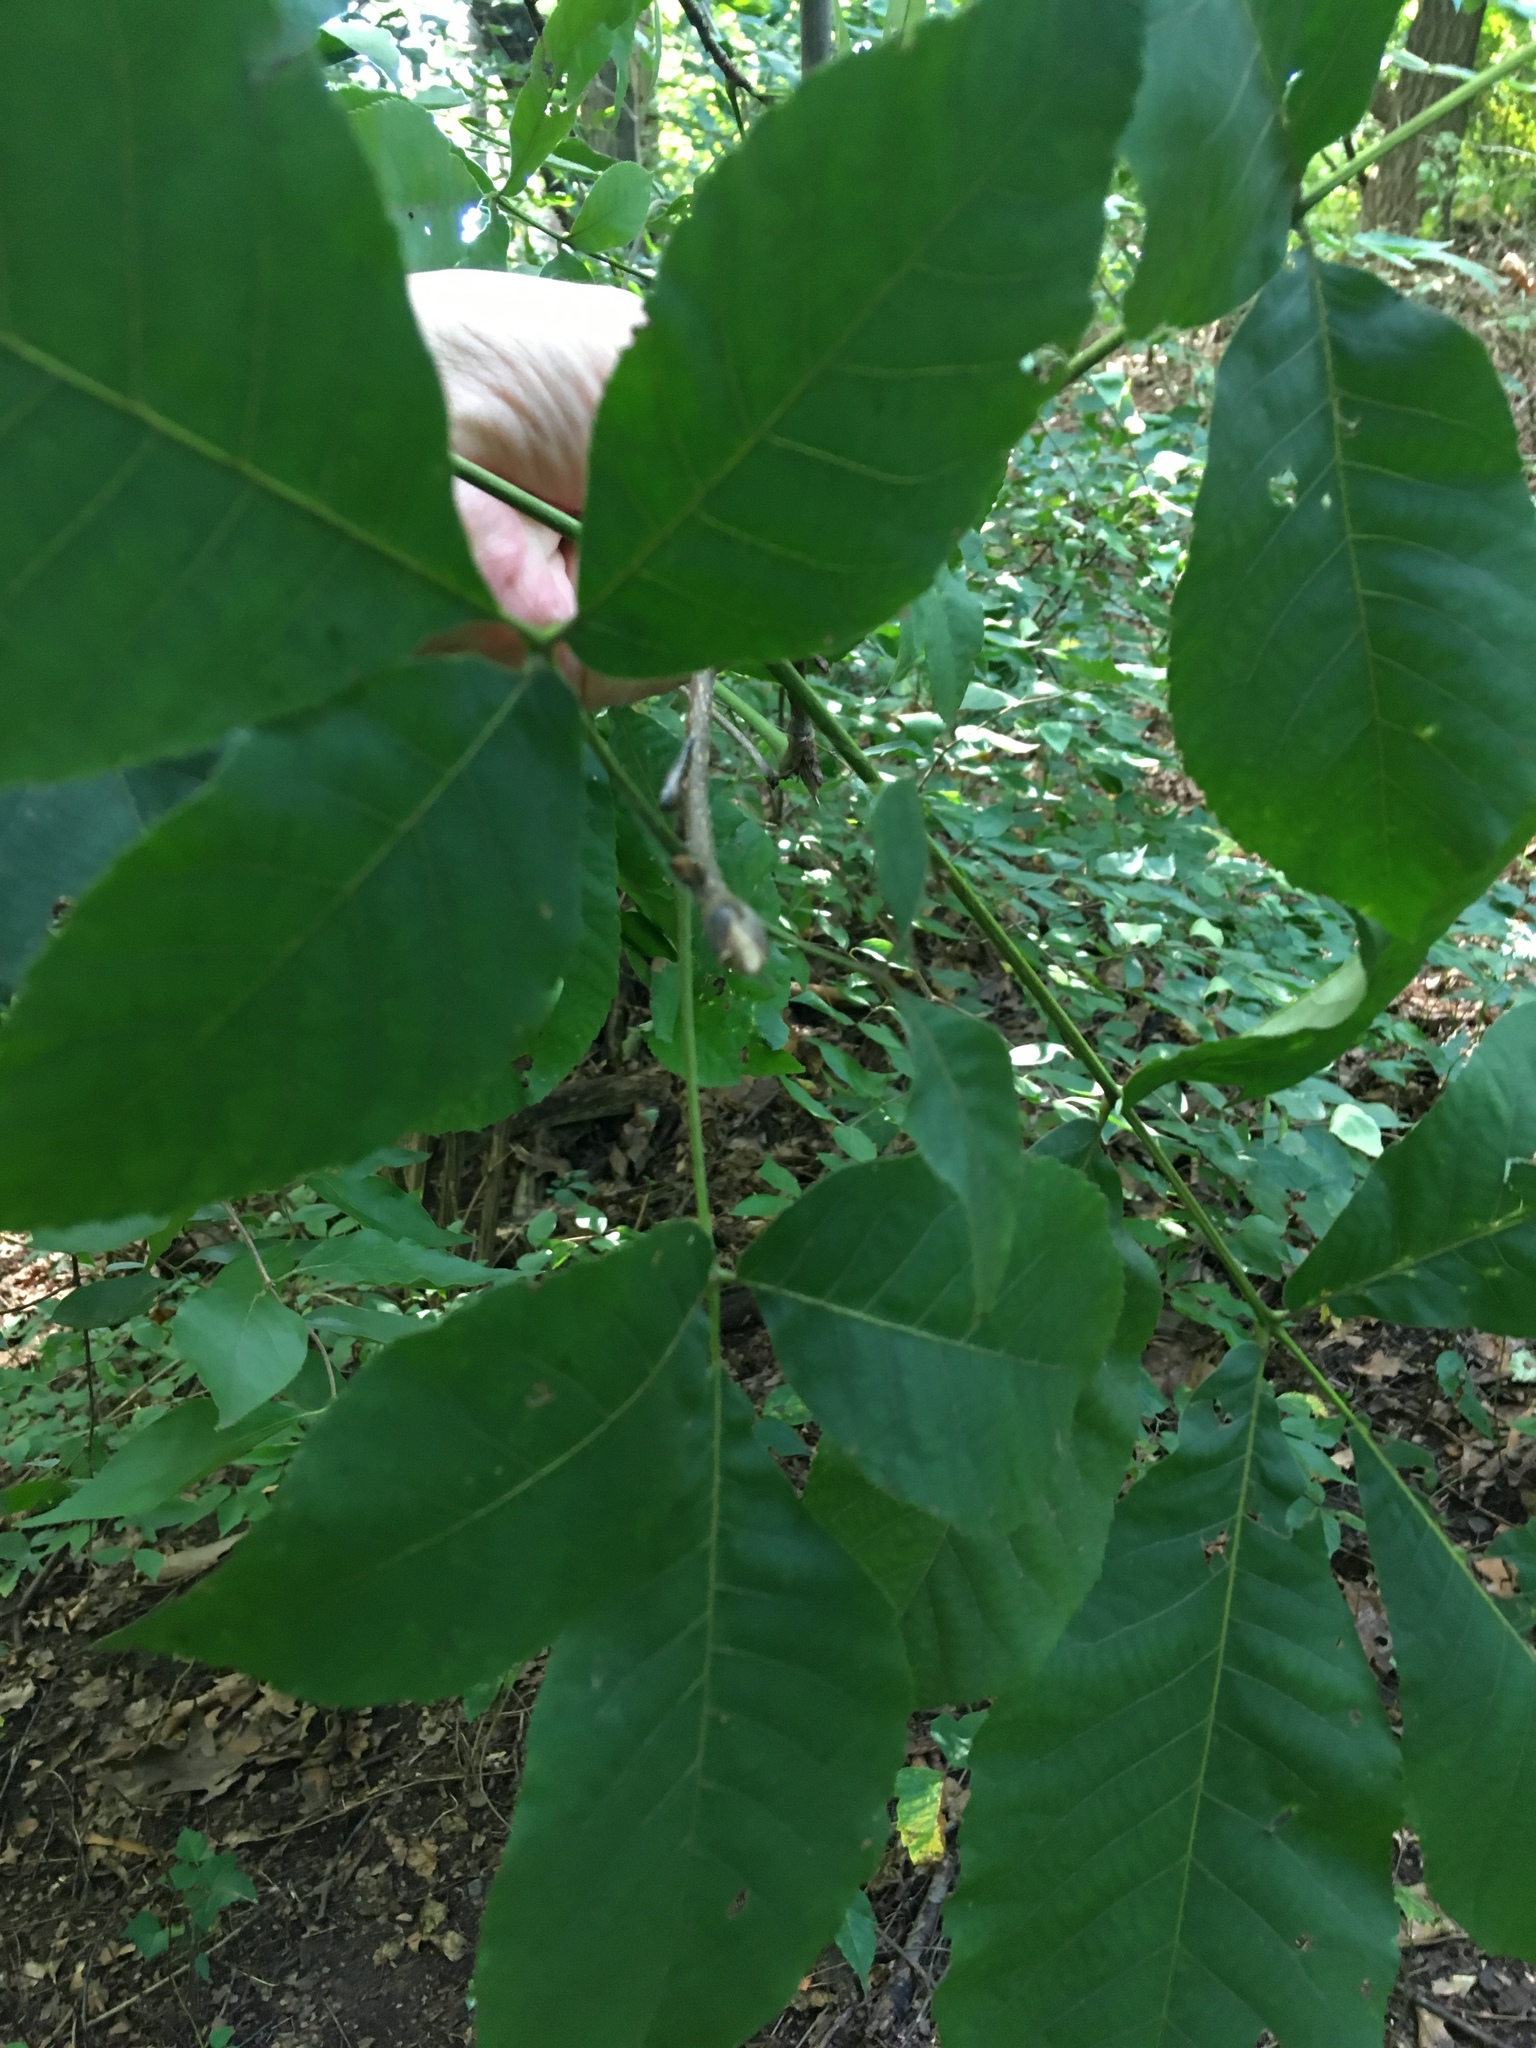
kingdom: Plantae
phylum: Tracheophyta
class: Magnoliopsida
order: Fagales
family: Juglandaceae
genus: Carya
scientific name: Carya glabra
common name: Pignut hickory
